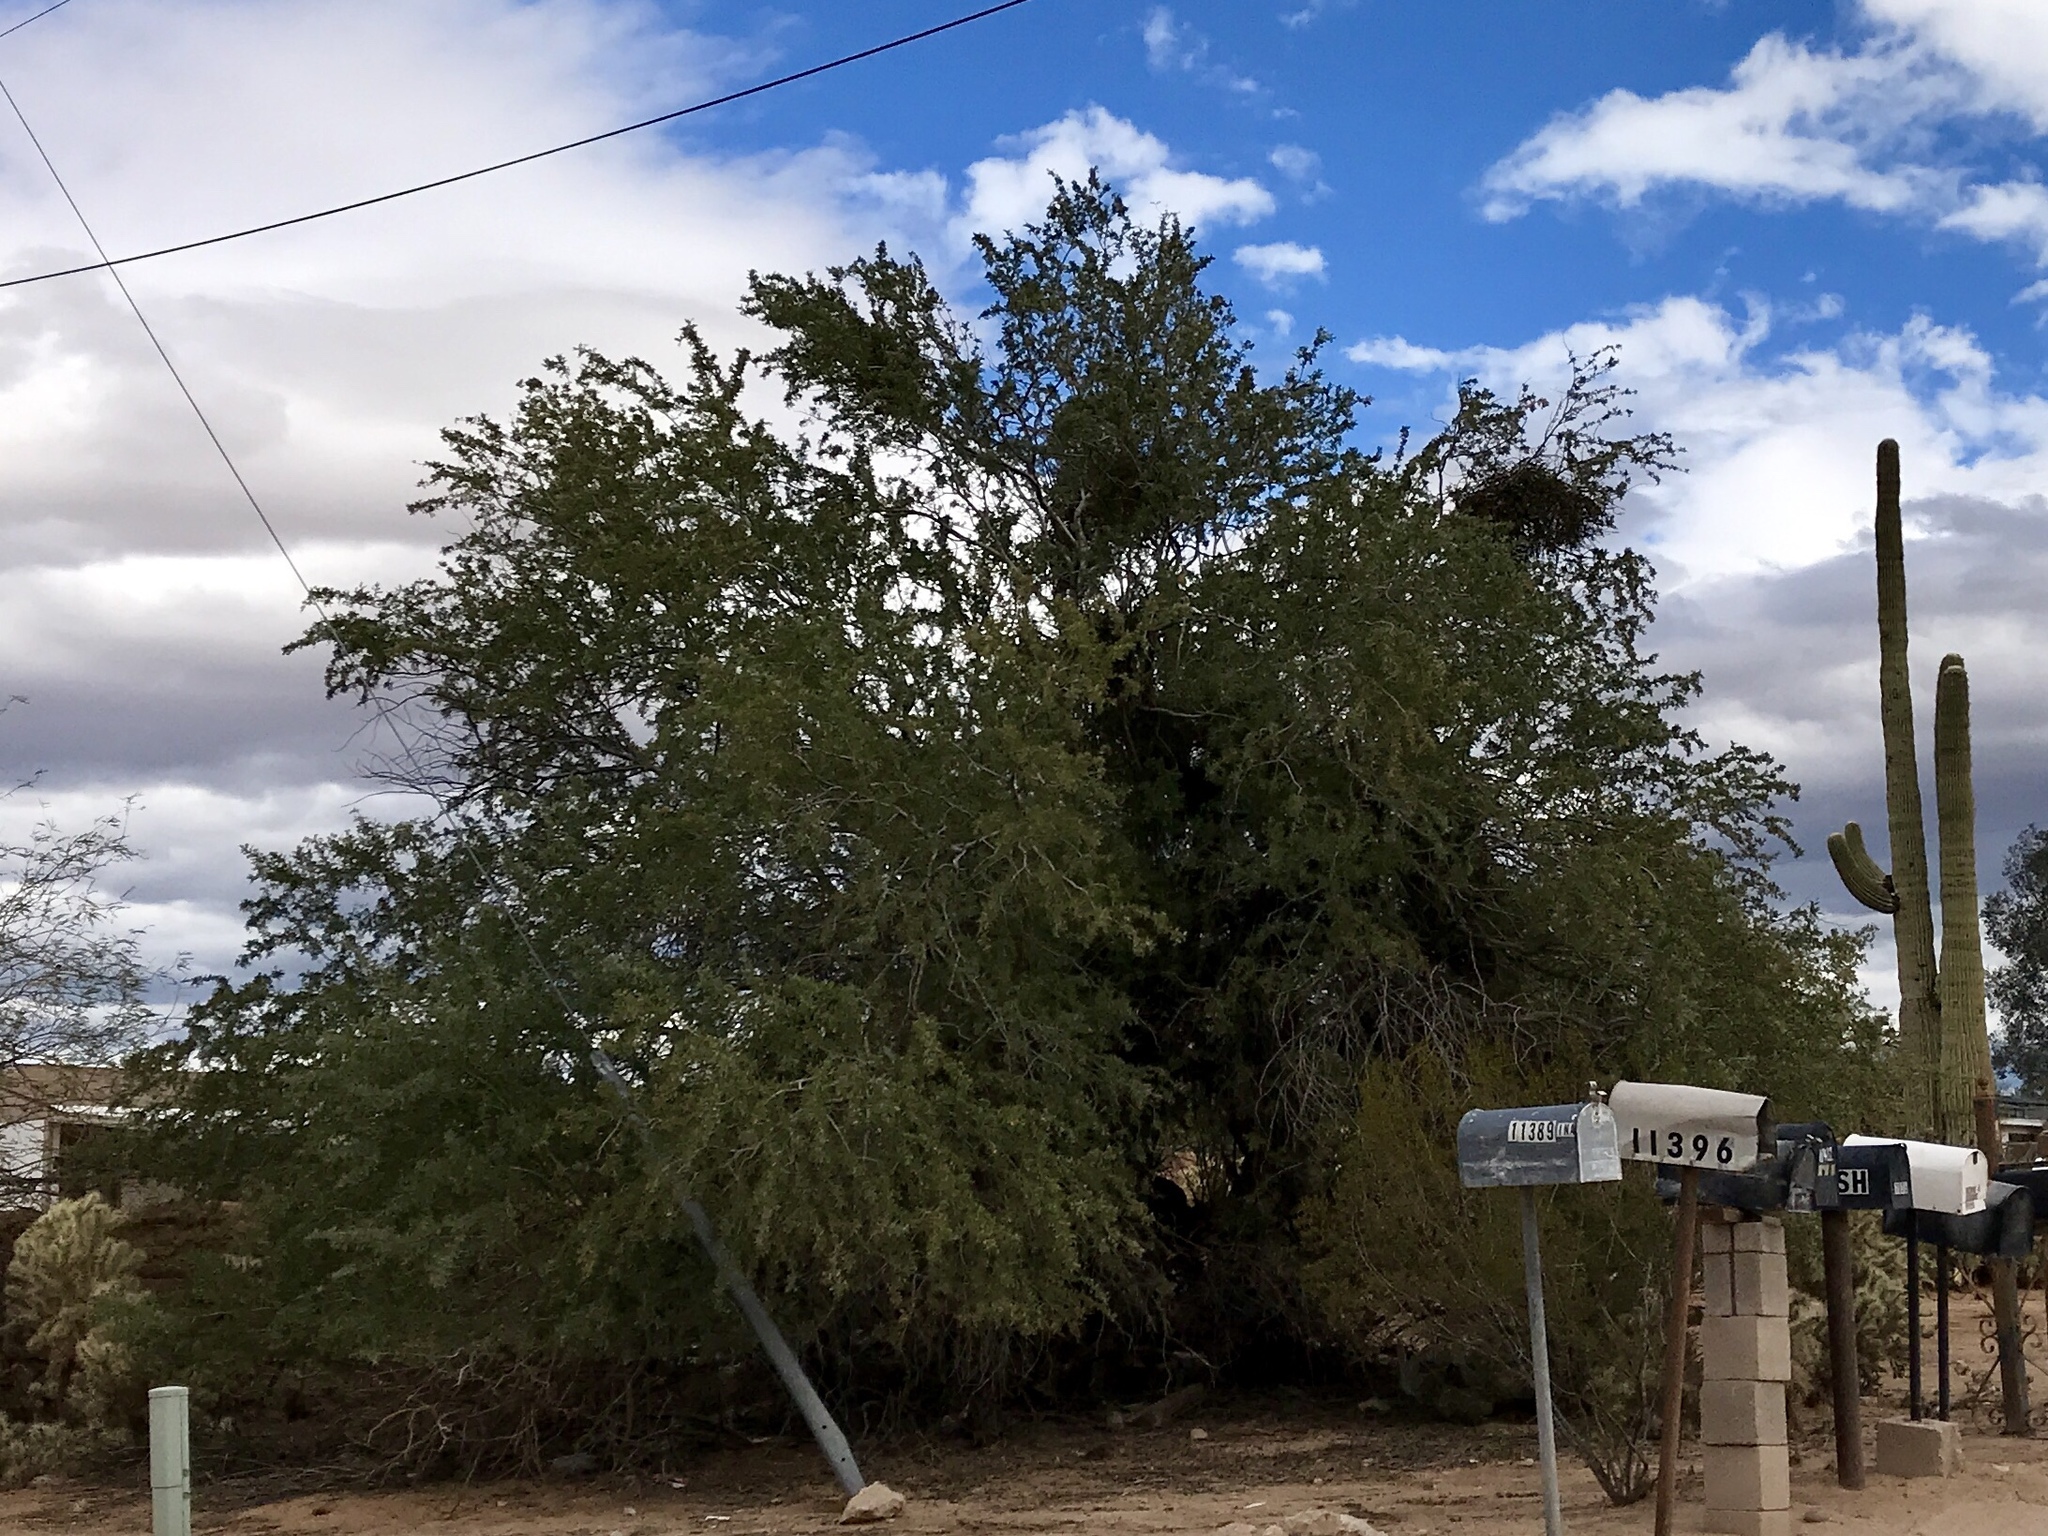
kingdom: Plantae
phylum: Tracheophyta
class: Magnoliopsida
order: Fabales
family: Fabaceae
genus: Olneya
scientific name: Olneya tesota
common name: Desert ironwood
